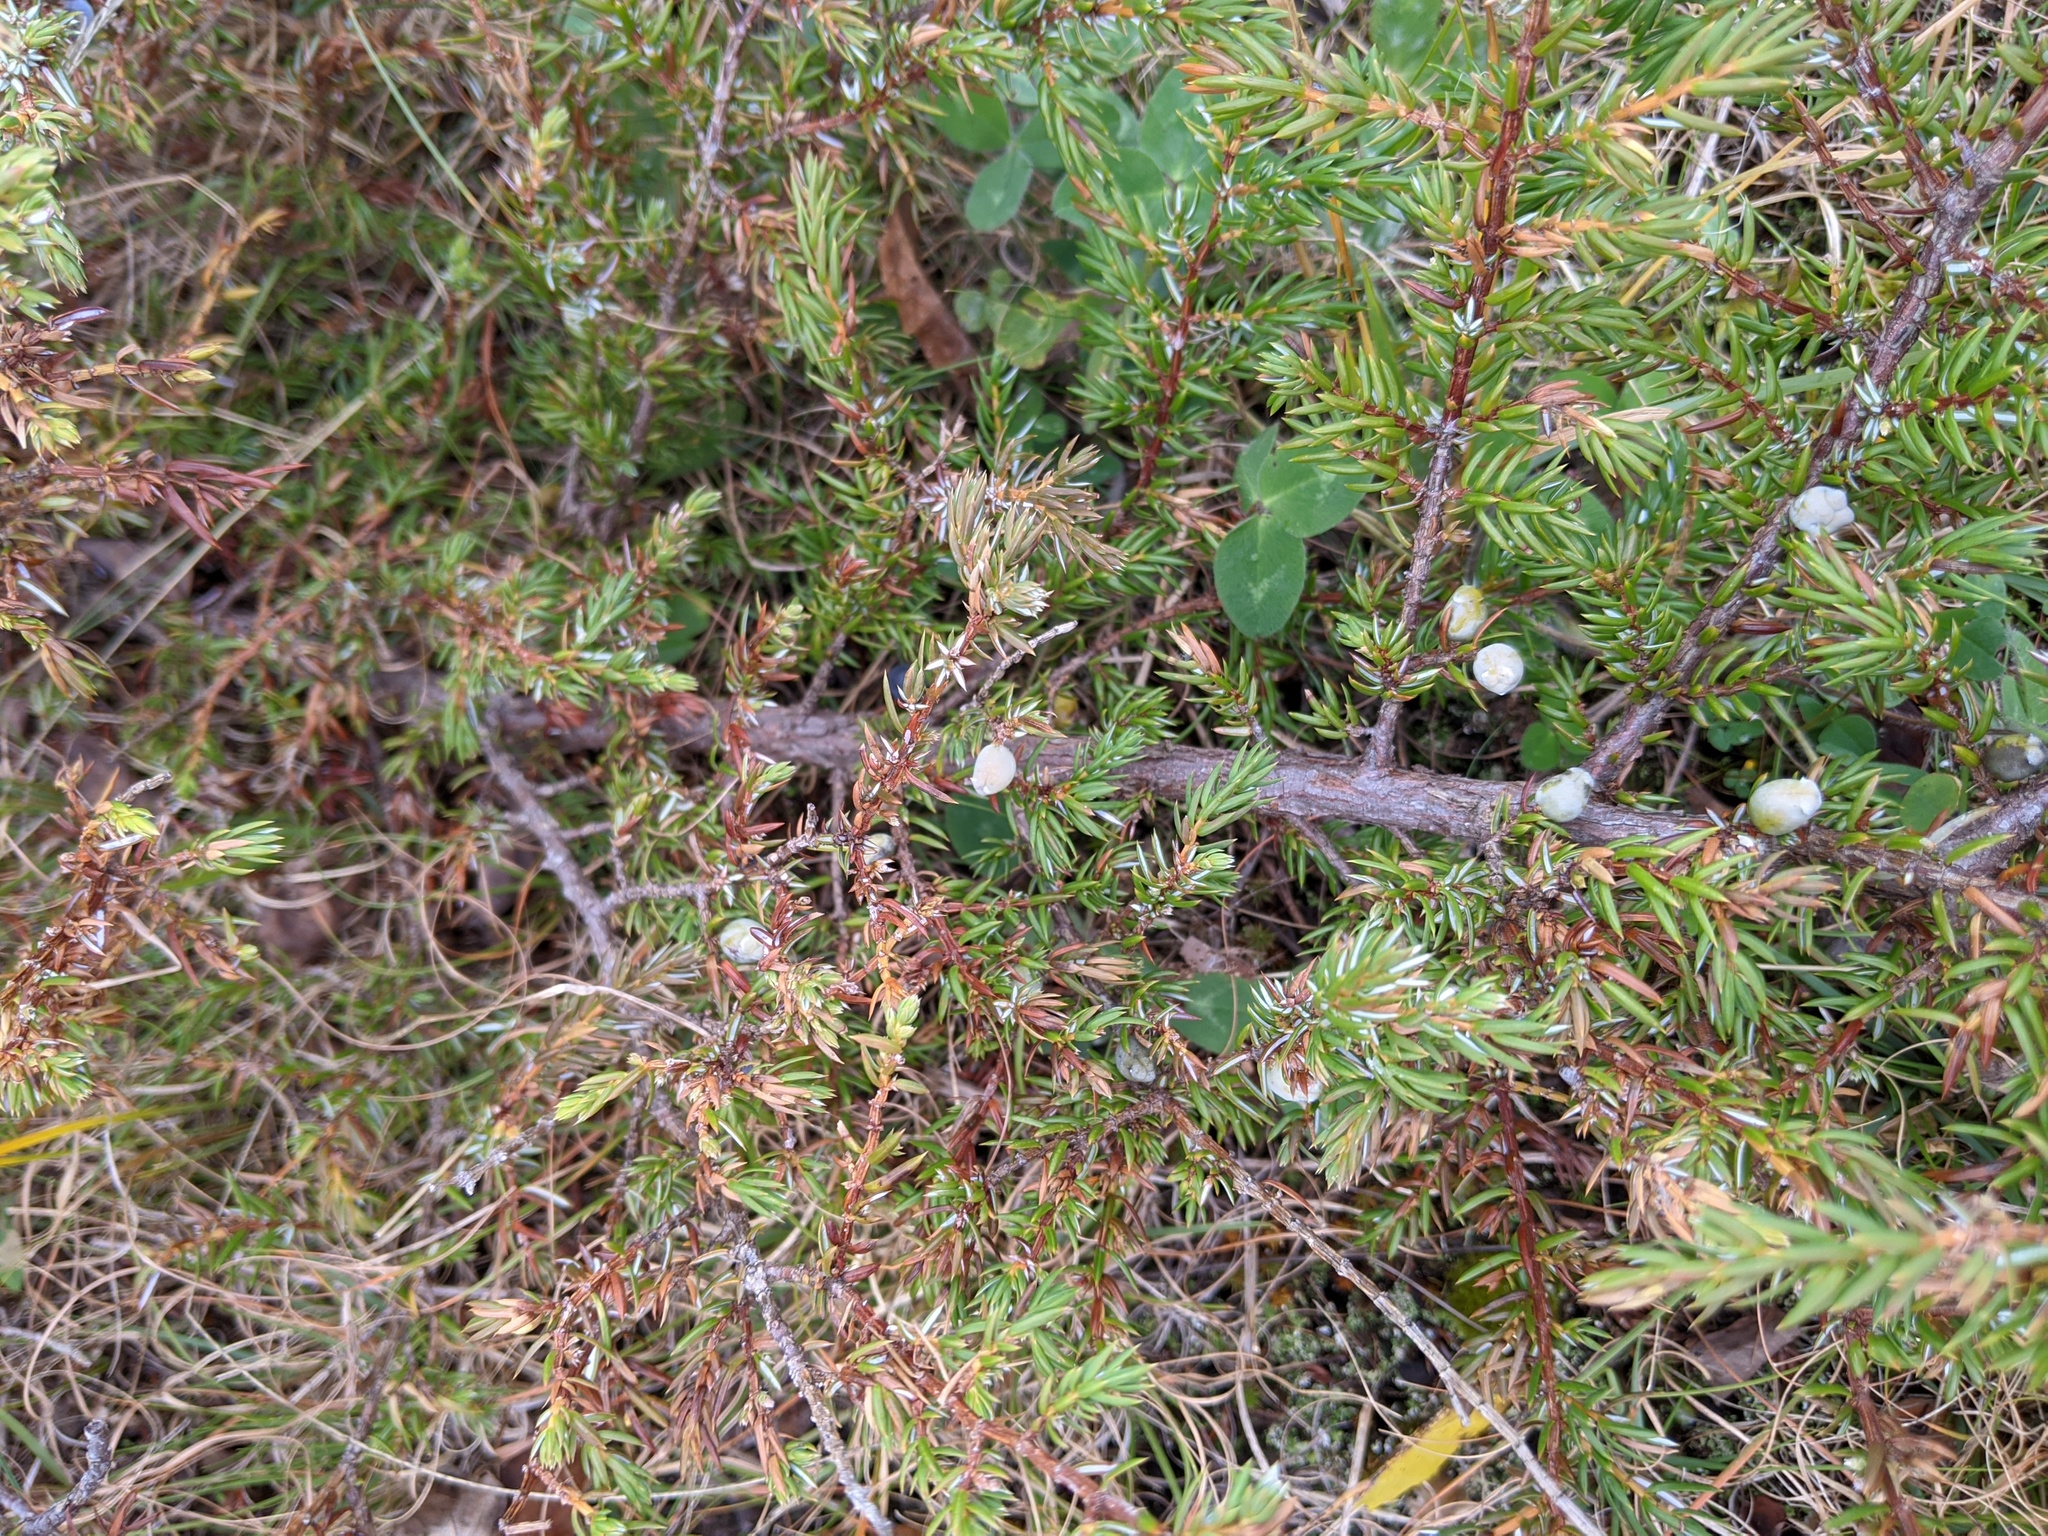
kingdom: Plantae
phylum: Tracheophyta
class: Pinopsida
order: Pinales
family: Cupressaceae
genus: Juniperus
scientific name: Juniperus communis
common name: Common juniper
